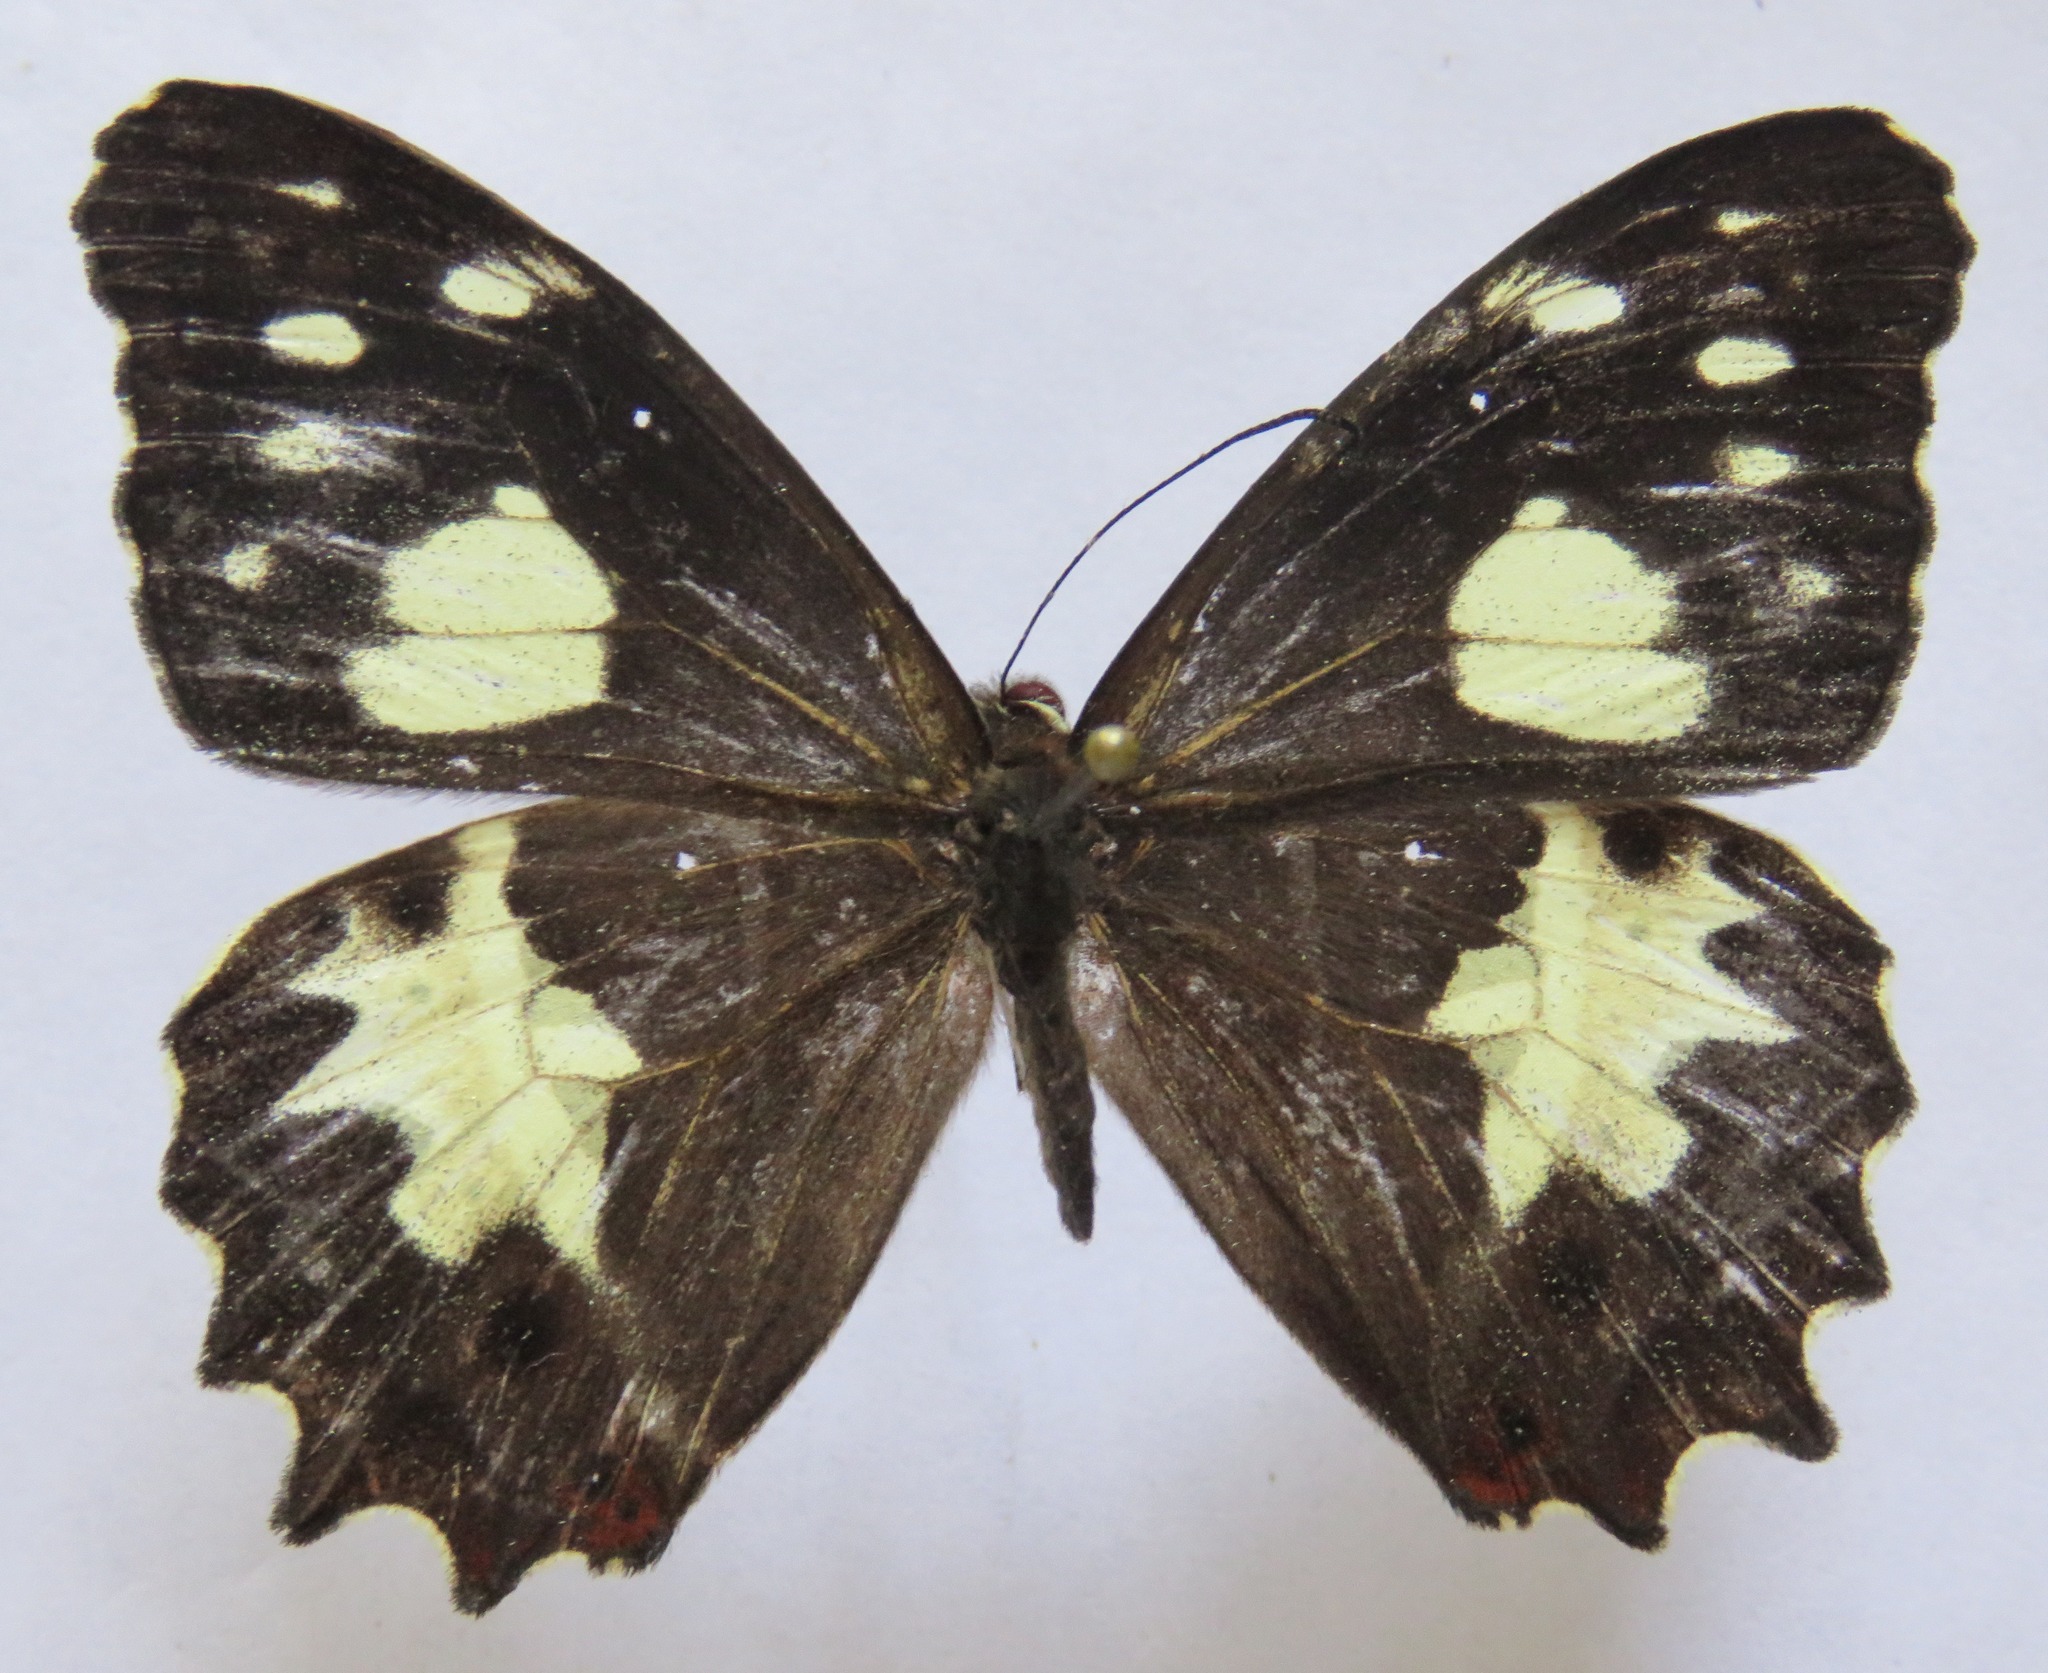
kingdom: Animalia
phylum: Arthropoda
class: Insecta
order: Lepidoptera
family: Nymphalidae
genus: Oxeoschistus
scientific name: Oxeoschistus tauropolis
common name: Starred oxeo
